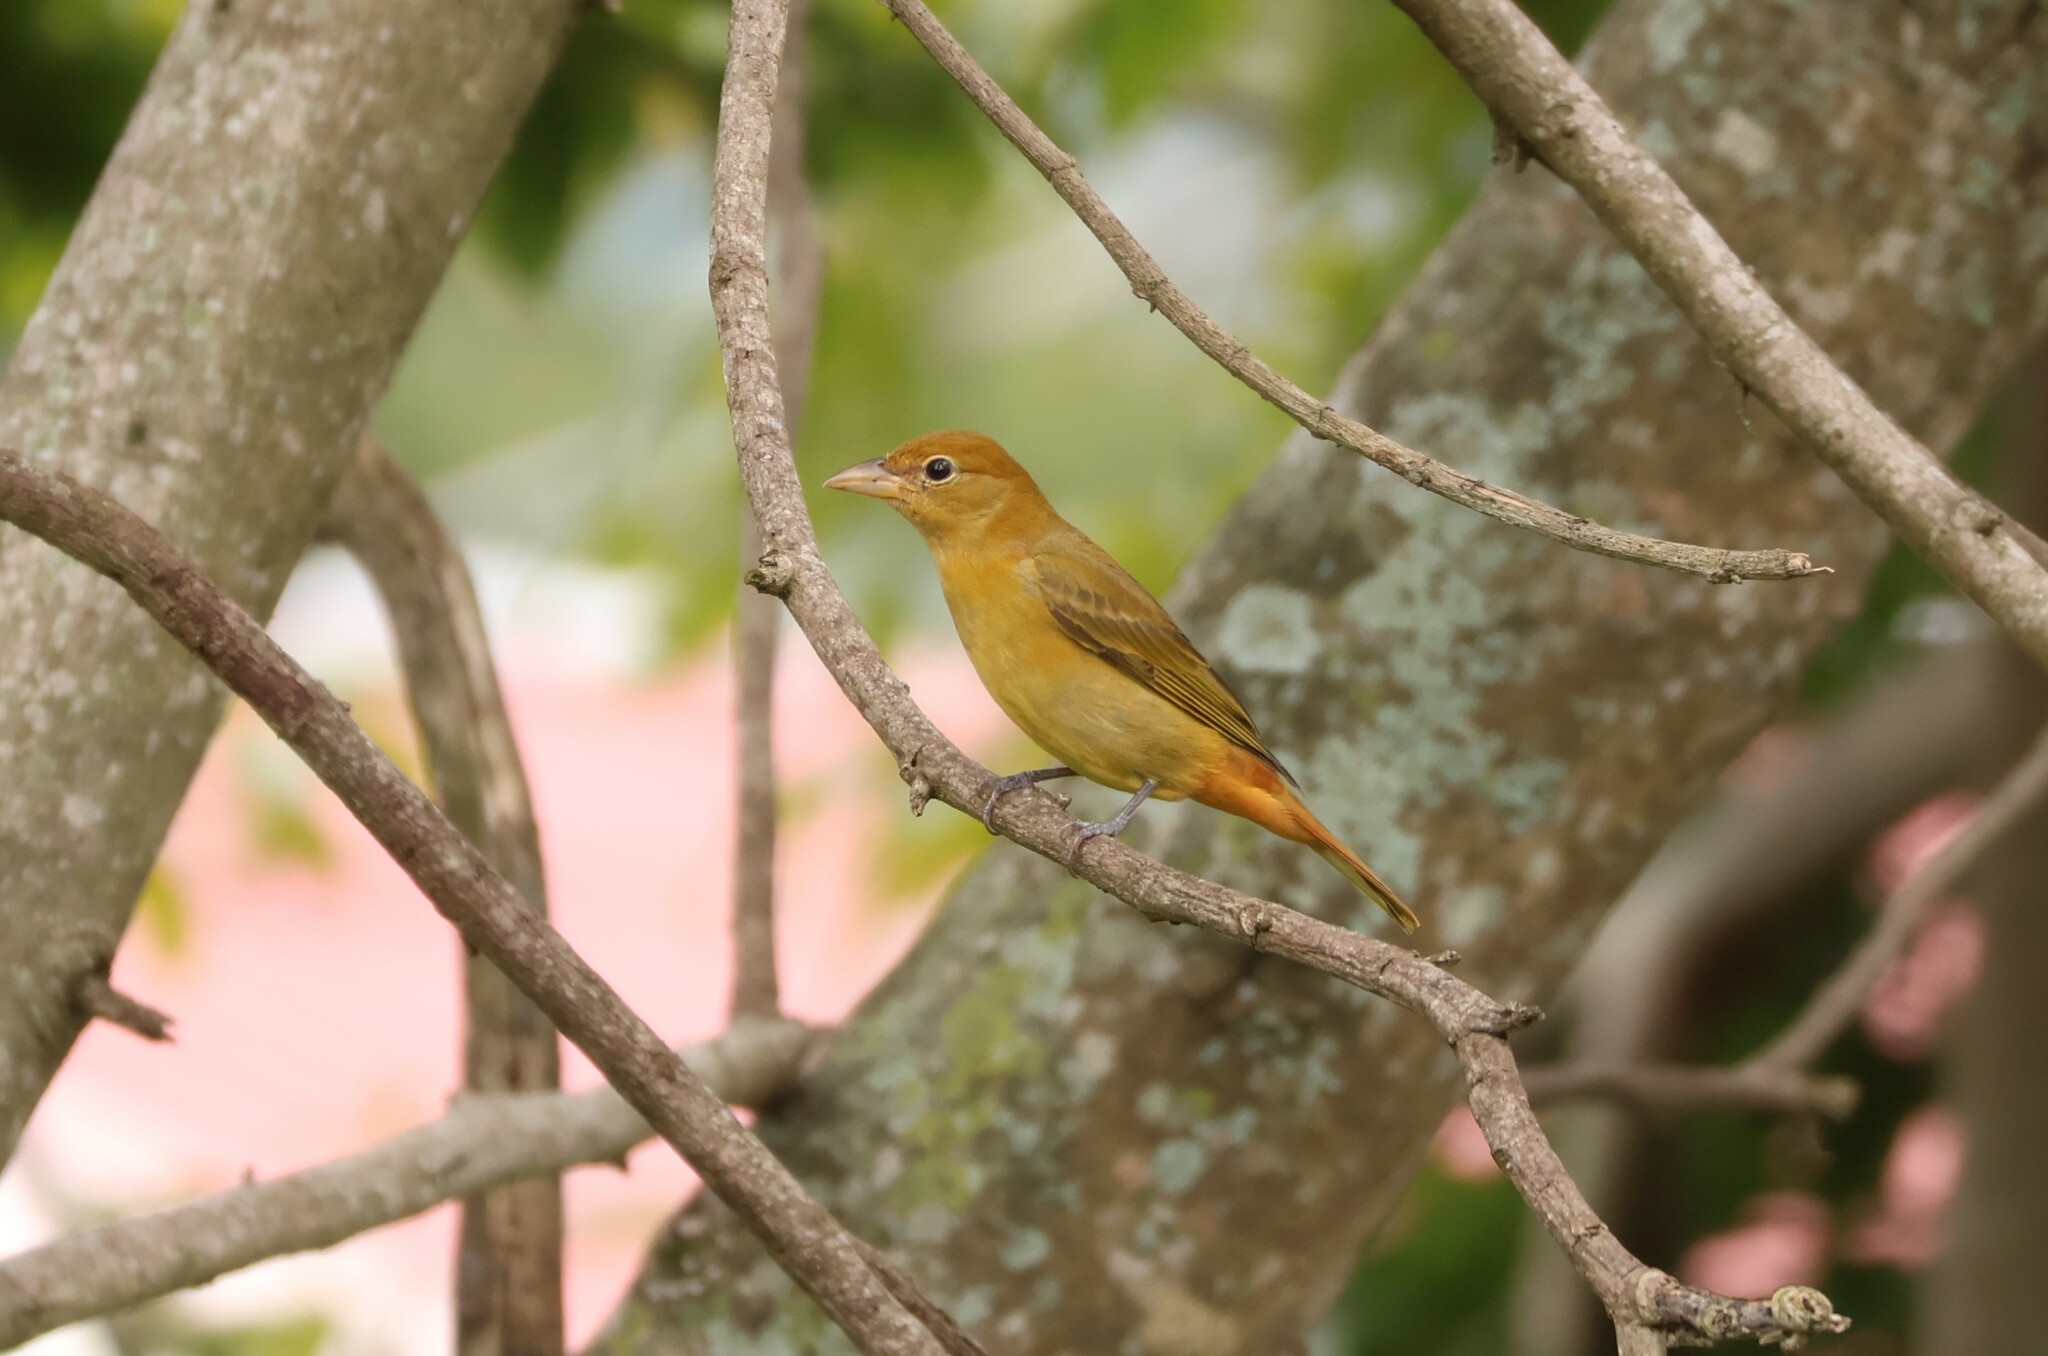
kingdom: Animalia
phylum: Chordata
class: Aves
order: Passeriformes
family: Cardinalidae
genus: Piranga
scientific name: Piranga rubra
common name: Summer tanager
